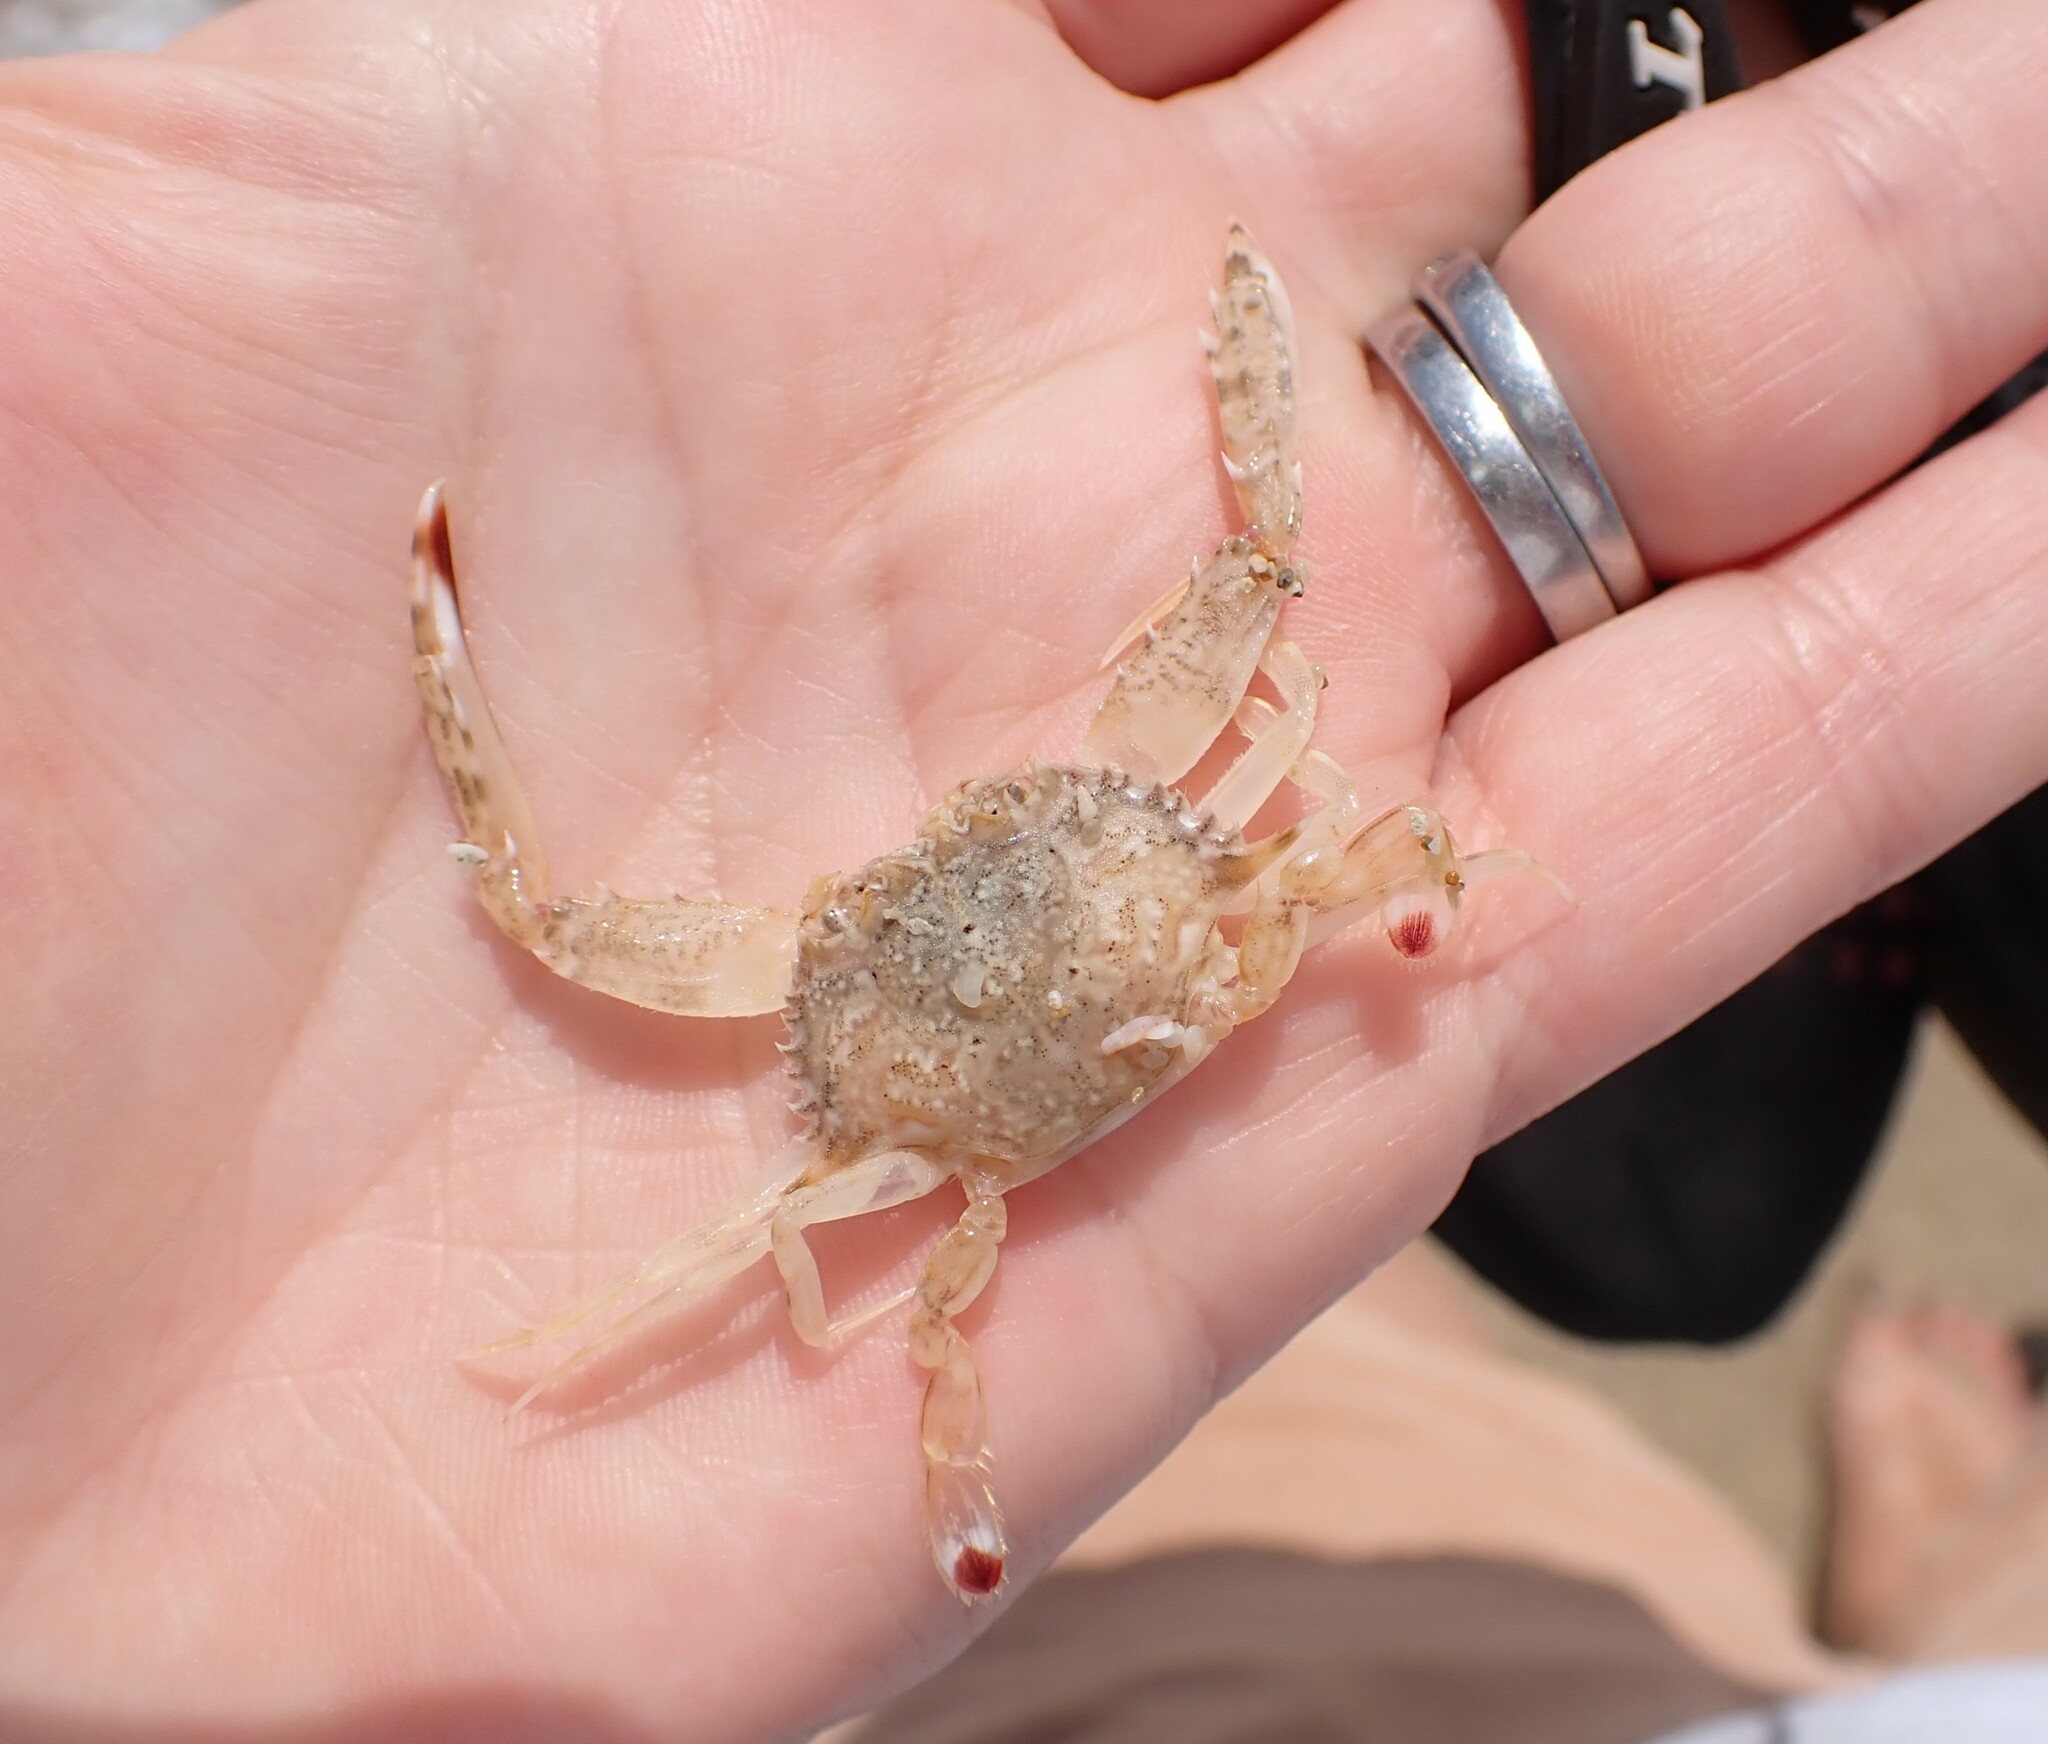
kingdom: Animalia
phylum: Arthropoda
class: Malacostraca
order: Decapoda
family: Portunidae
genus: Achelous
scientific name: Achelous hastatus
